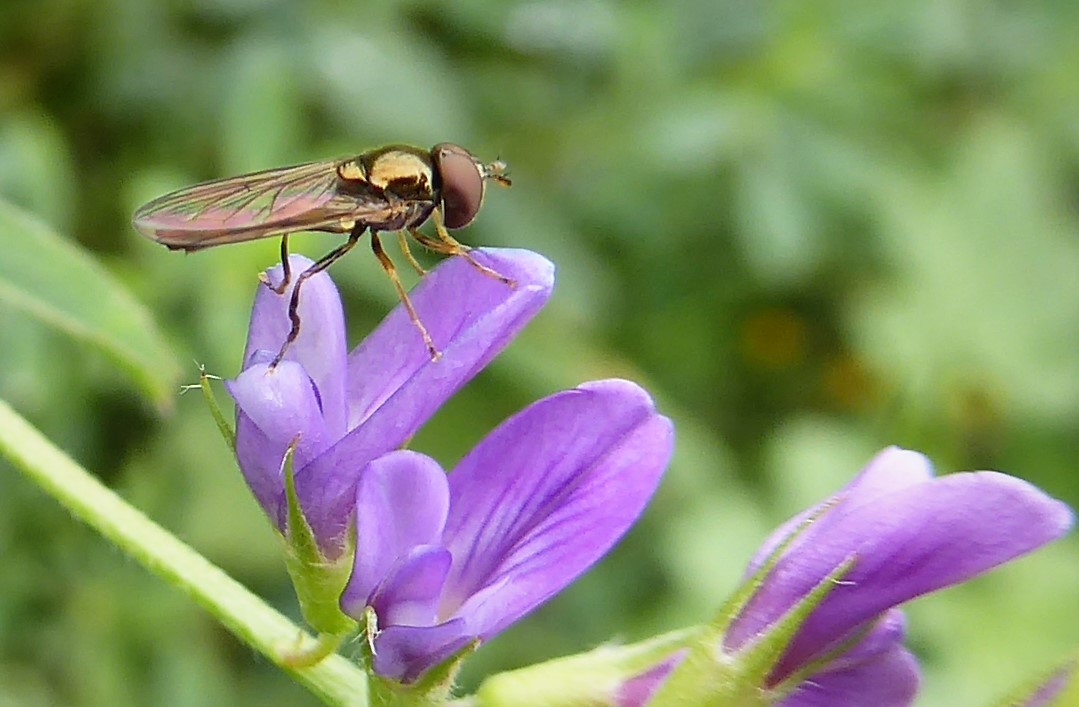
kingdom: Animalia
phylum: Arthropoda
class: Insecta
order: Diptera
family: Syrphidae
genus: Melanostoma
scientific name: Melanostoma fasciatum
